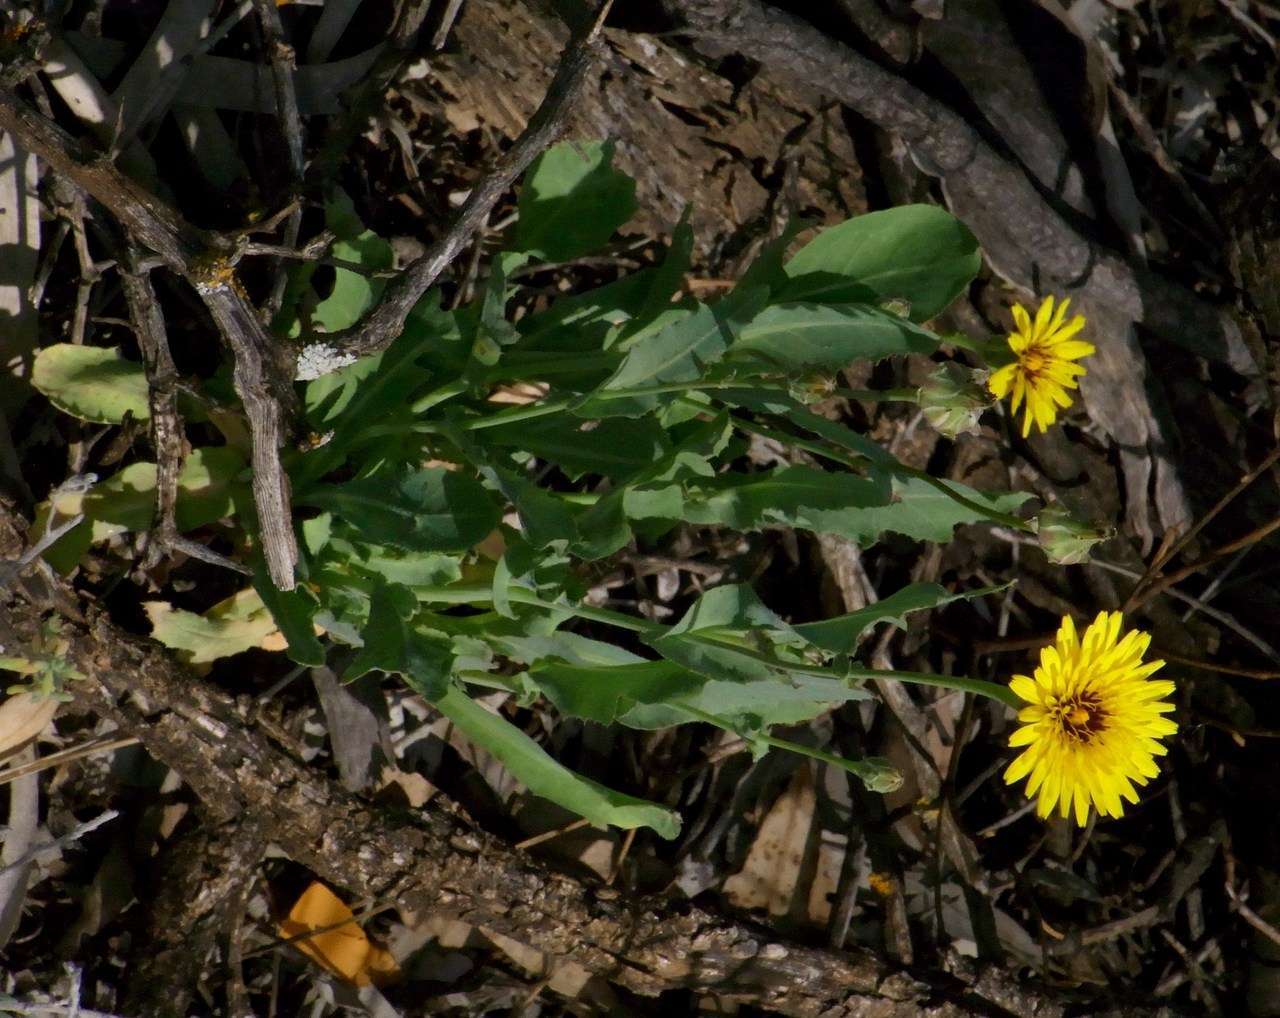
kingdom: Plantae
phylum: Tracheophyta
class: Magnoliopsida
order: Asterales
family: Asteraceae
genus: Reichardia
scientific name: Reichardia tingitana
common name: Reichardia
